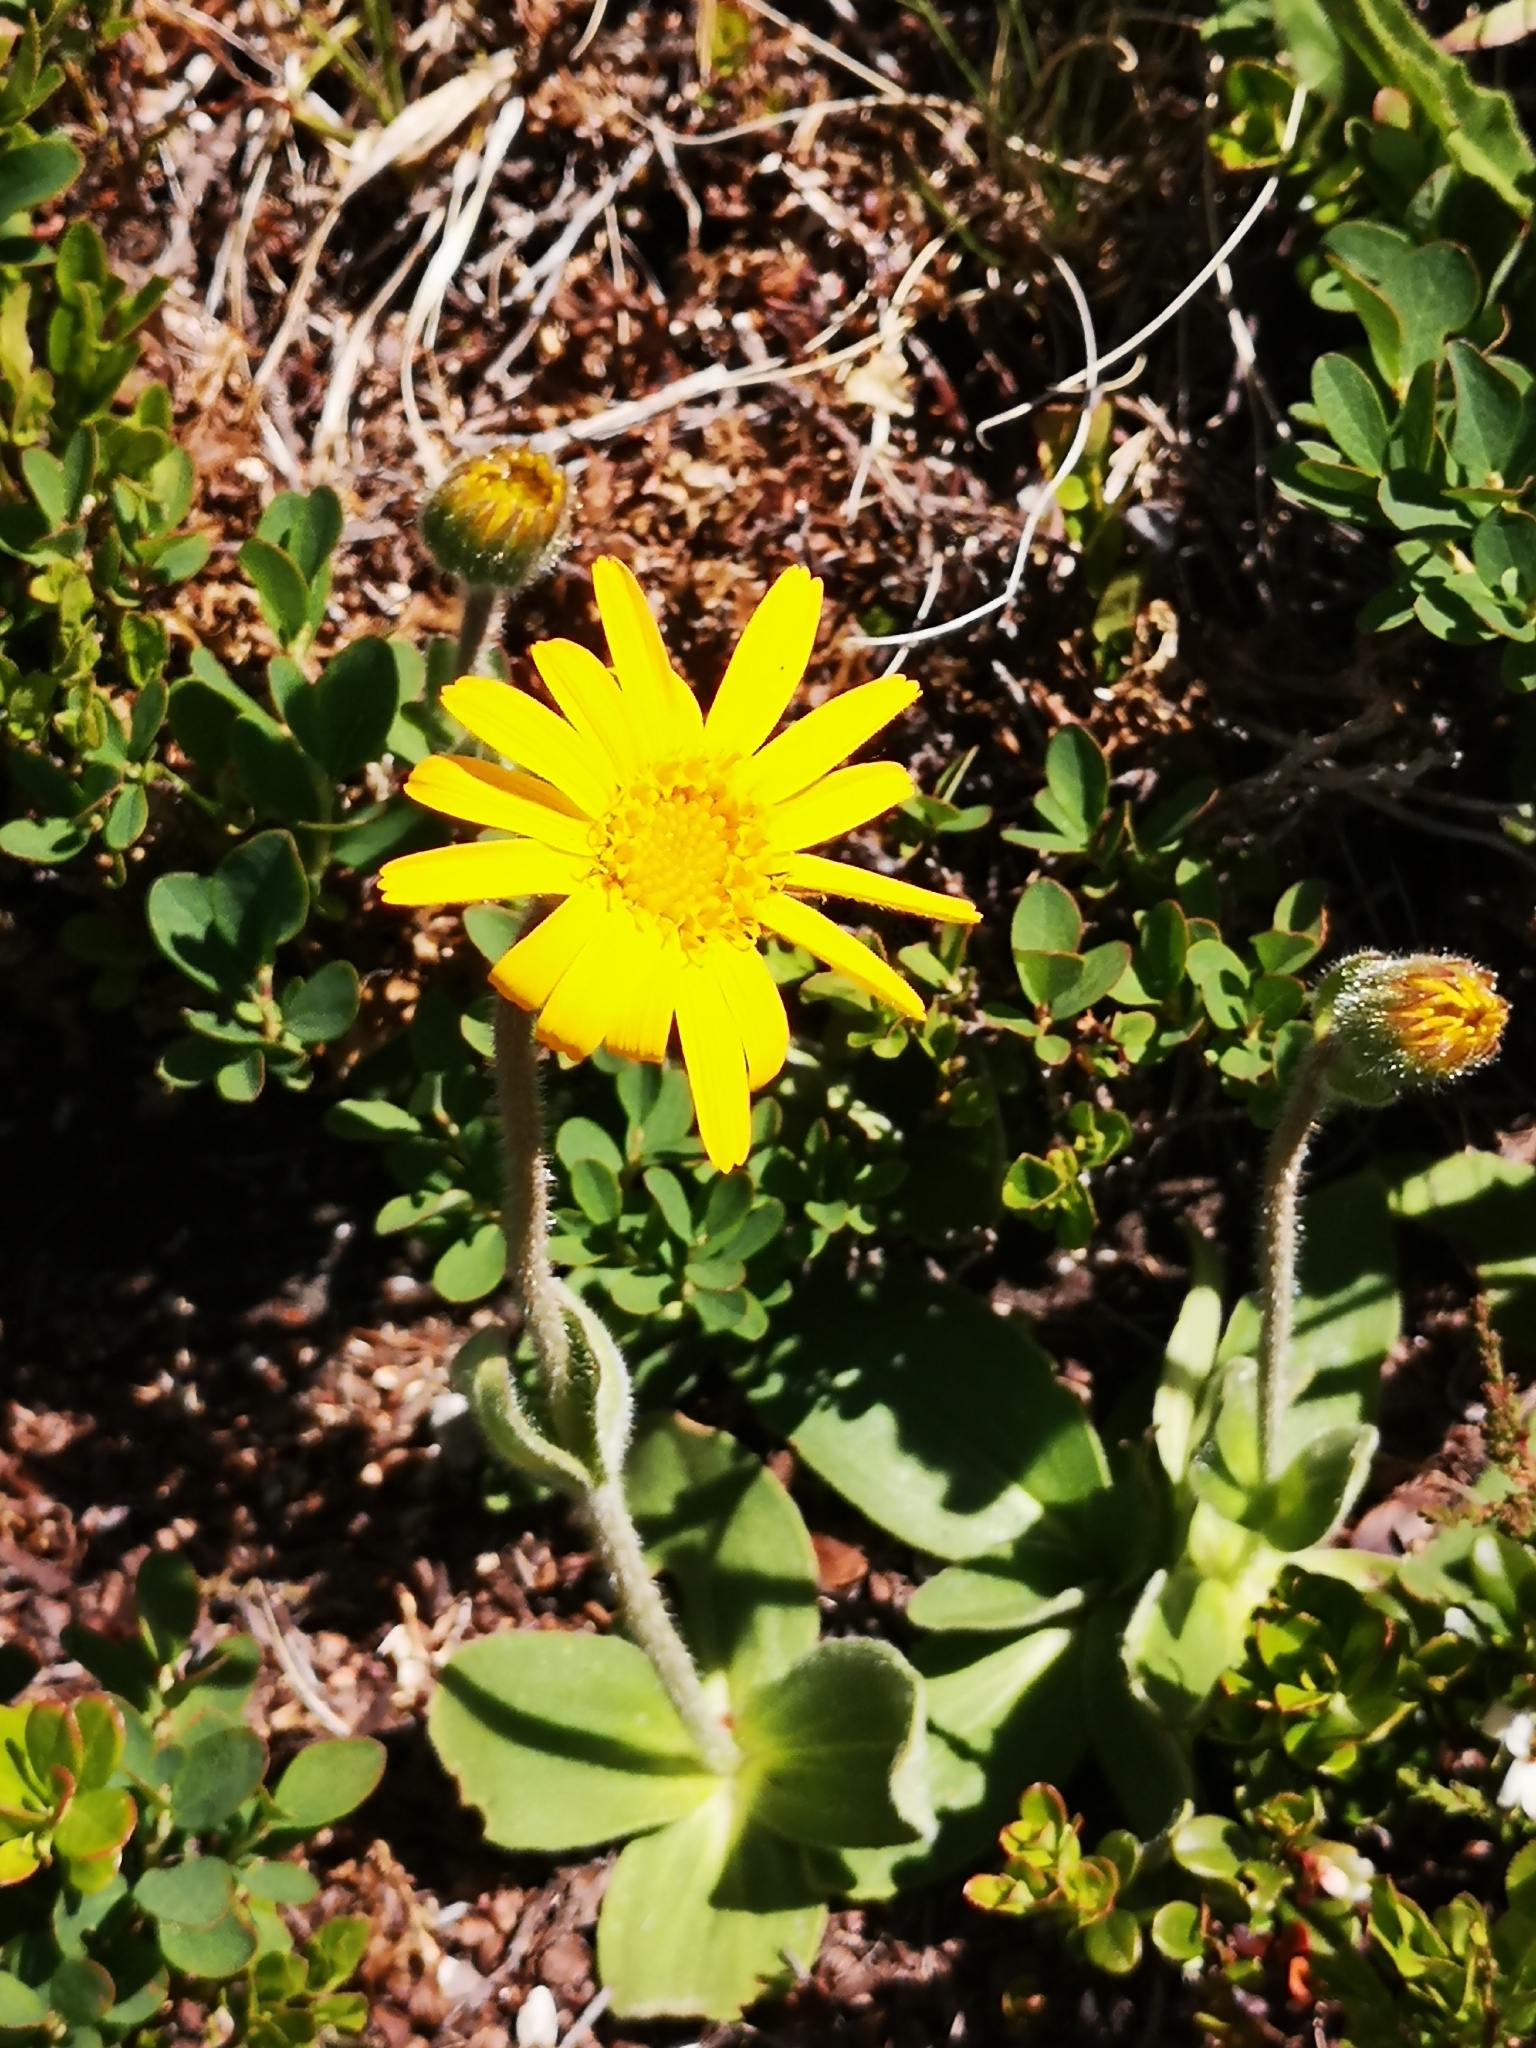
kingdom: Plantae
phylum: Tracheophyta
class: Magnoliopsida
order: Asterales
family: Asteraceae
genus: Arnica
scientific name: Arnica montana
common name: Leopard's bane
